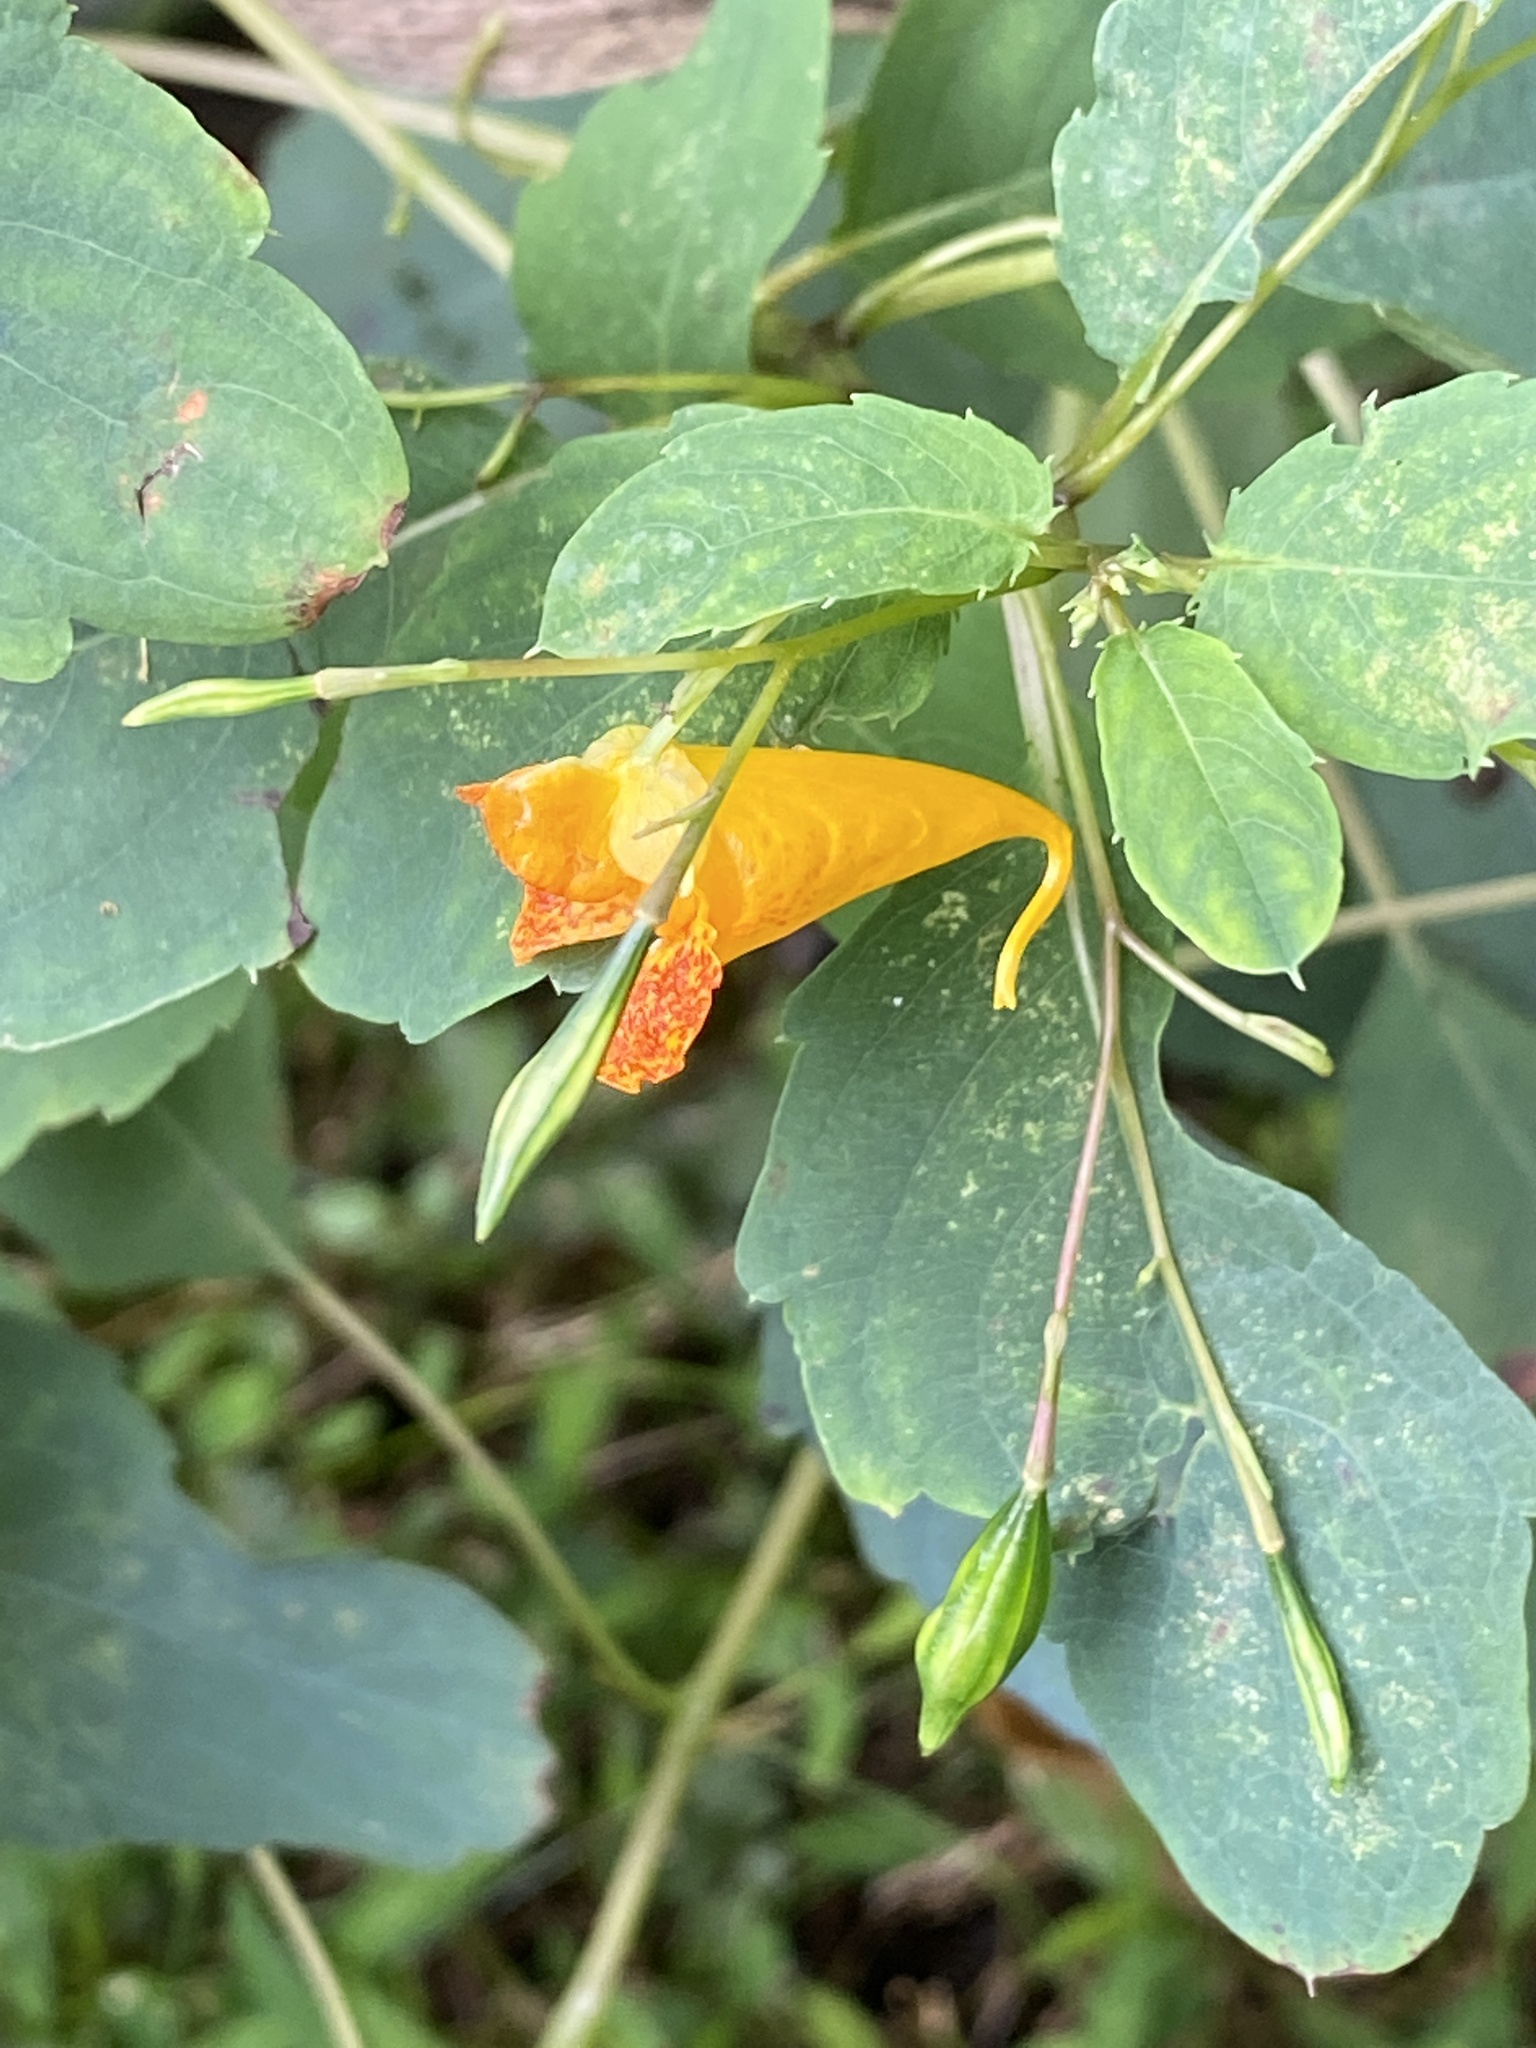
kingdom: Plantae
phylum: Tracheophyta
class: Magnoliopsida
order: Ericales
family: Balsaminaceae
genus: Impatiens
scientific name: Impatiens capensis
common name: Orange balsam
